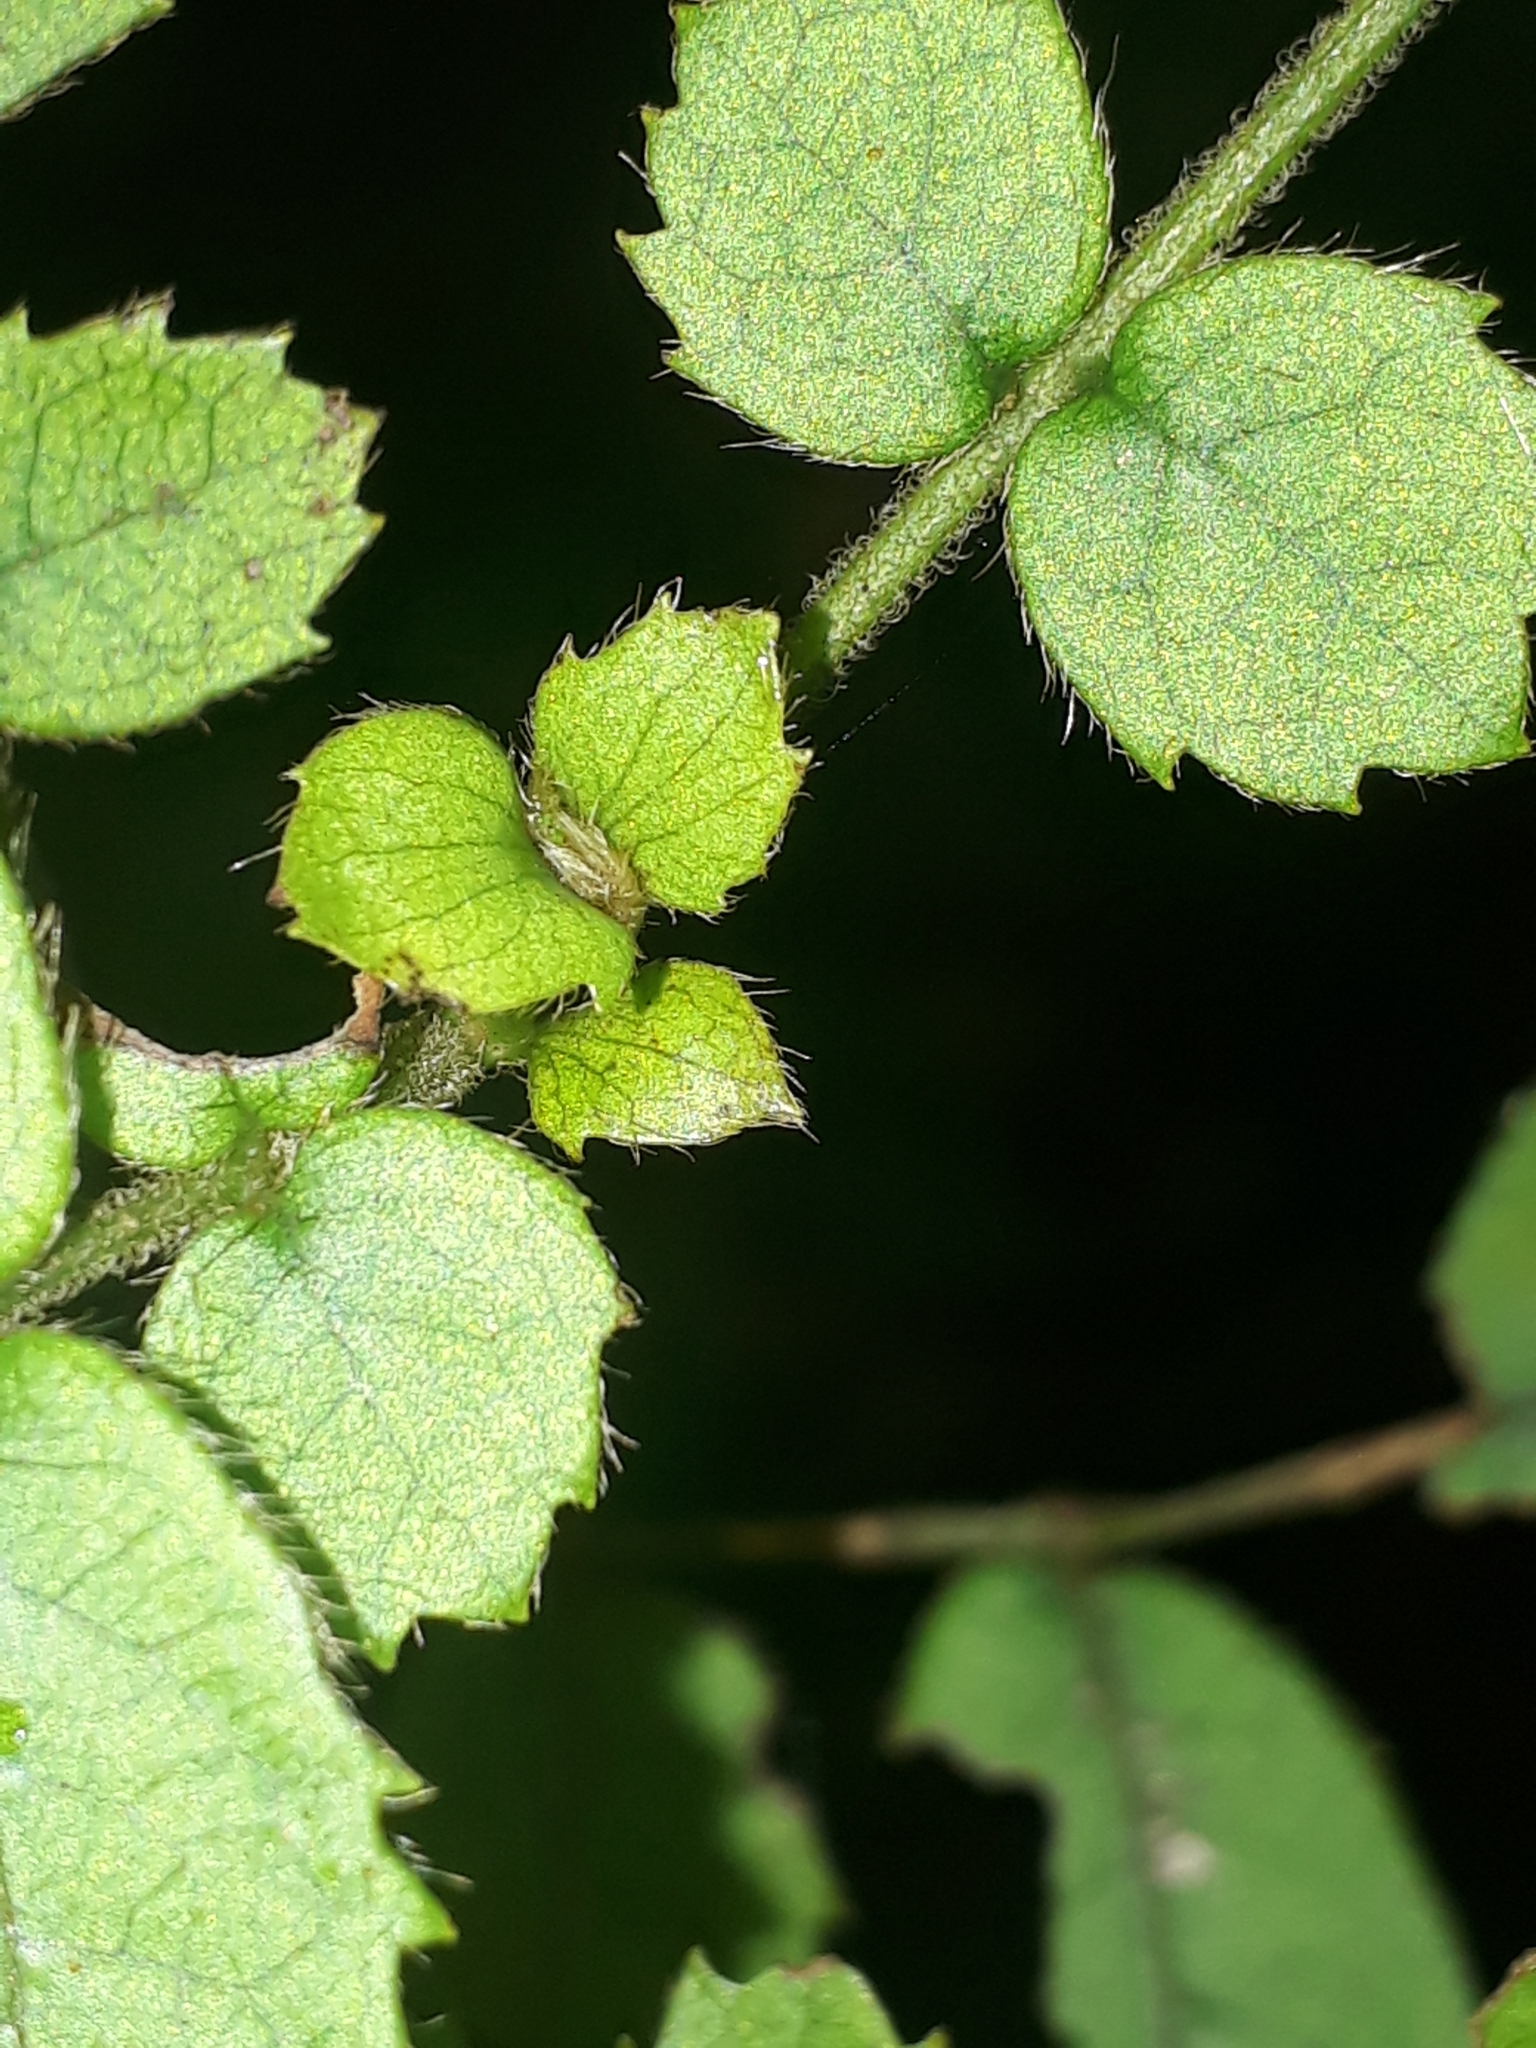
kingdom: Plantae
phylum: Tracheophyta
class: Magnoliopsida
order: Oxalidales
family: Cunoniaceae
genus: Ackama
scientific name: Ackama rosifolia
